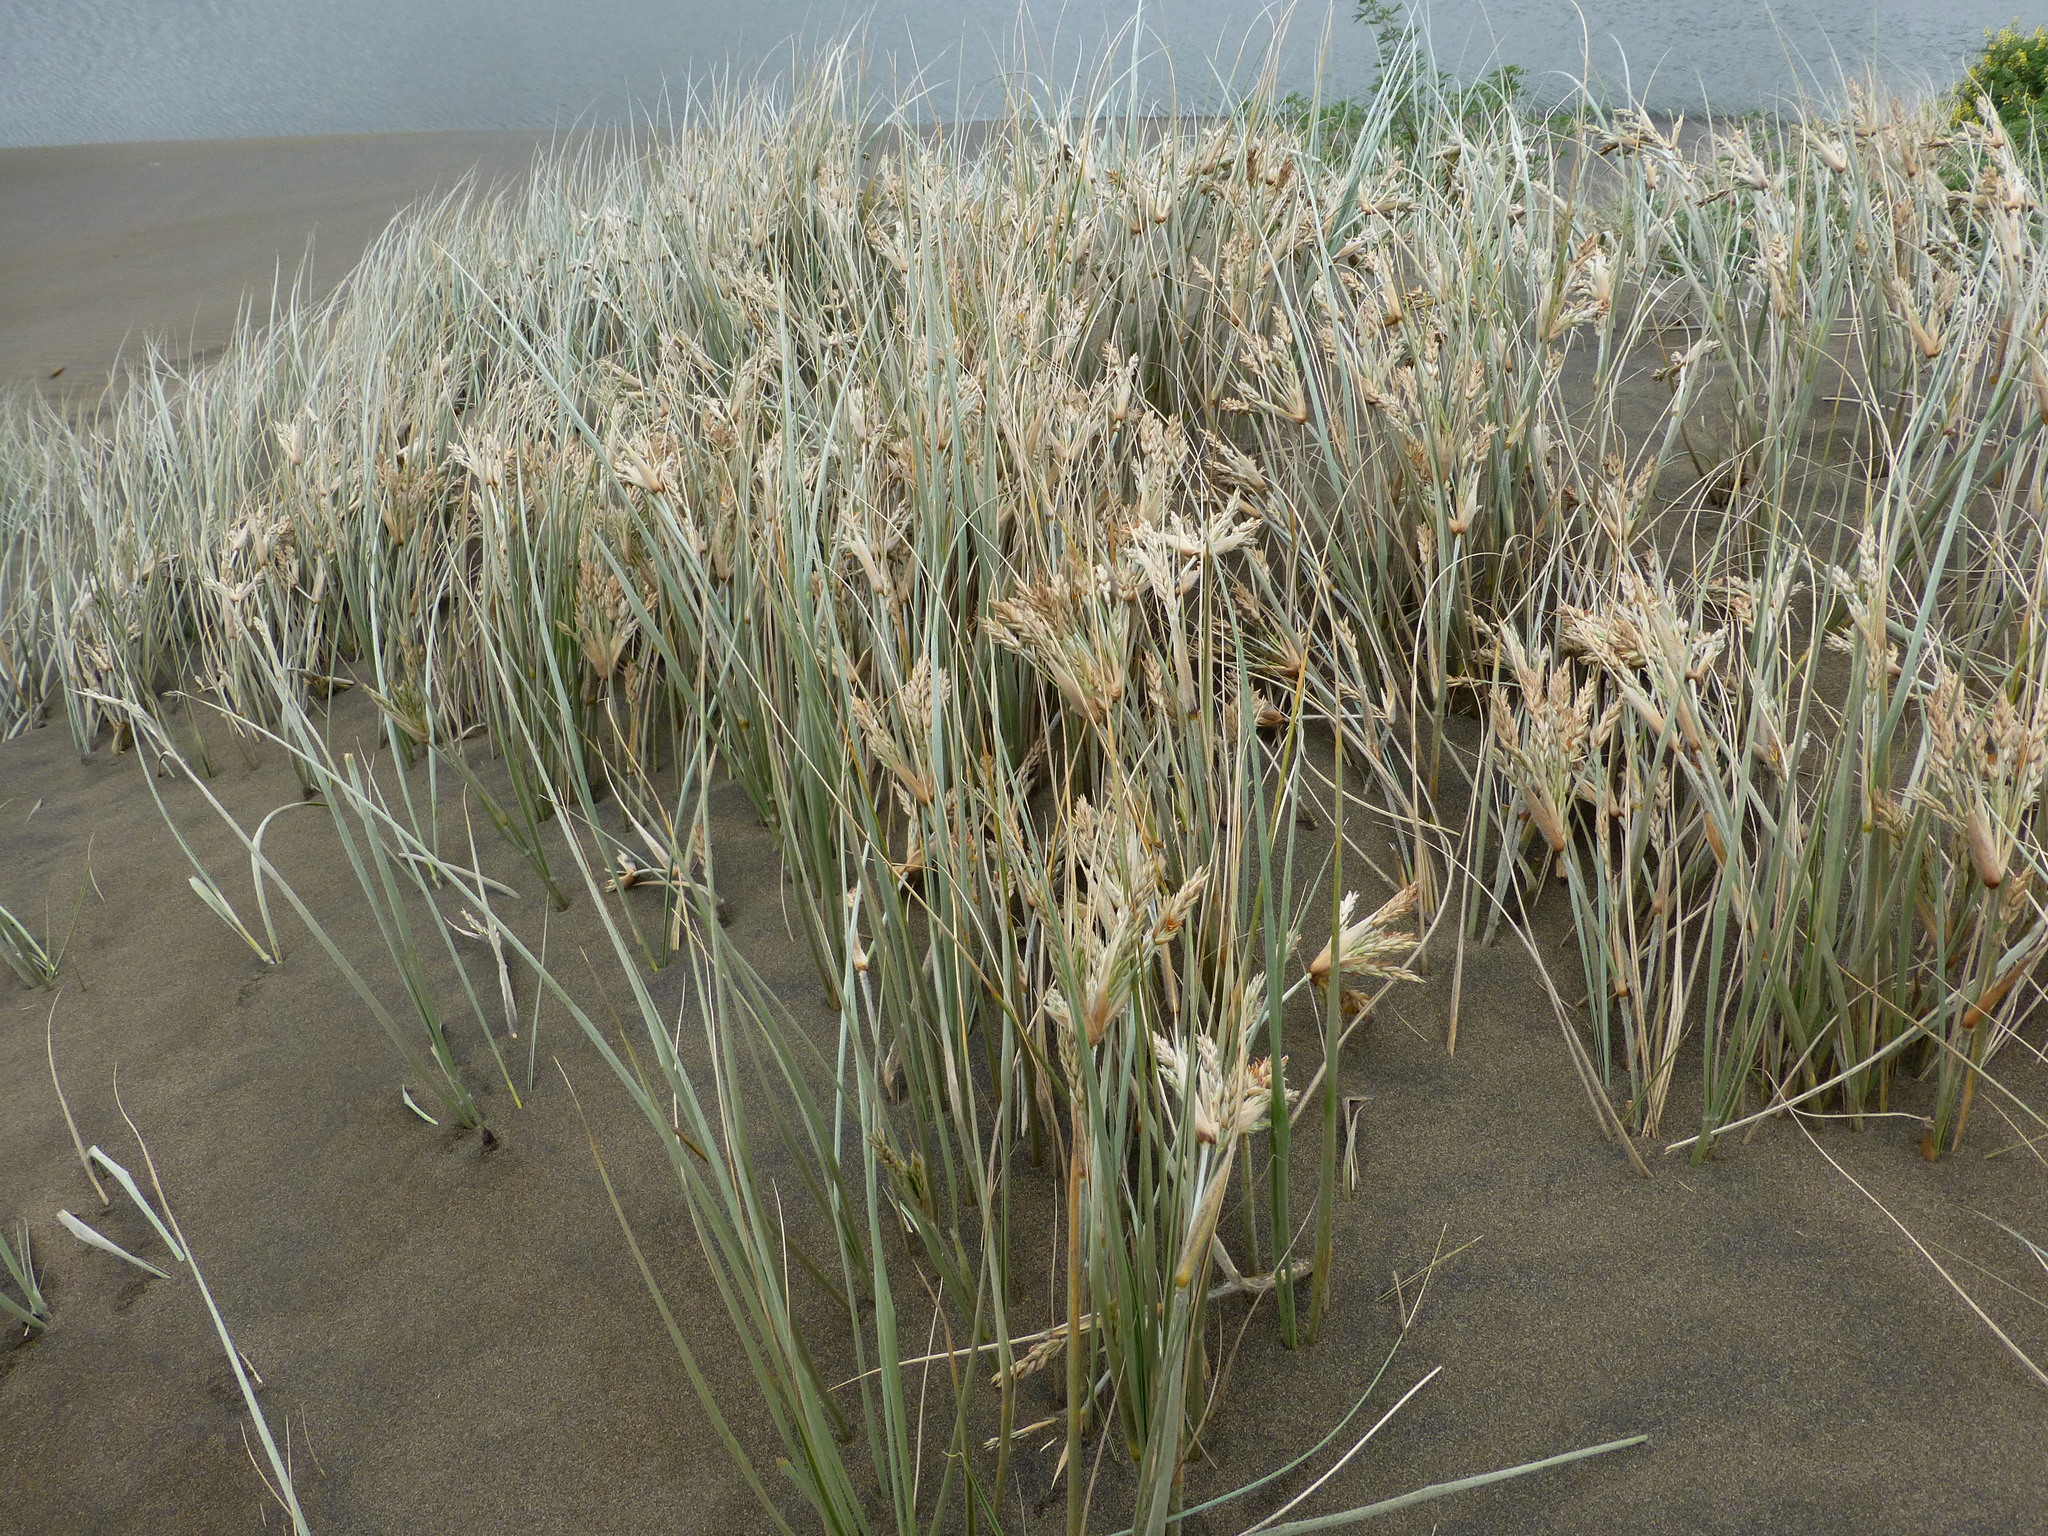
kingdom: Plantae
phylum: Tracheophyta
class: Liliopsida
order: Poales
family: Poaceae
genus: Spinifex
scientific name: Spinifex sericeus
